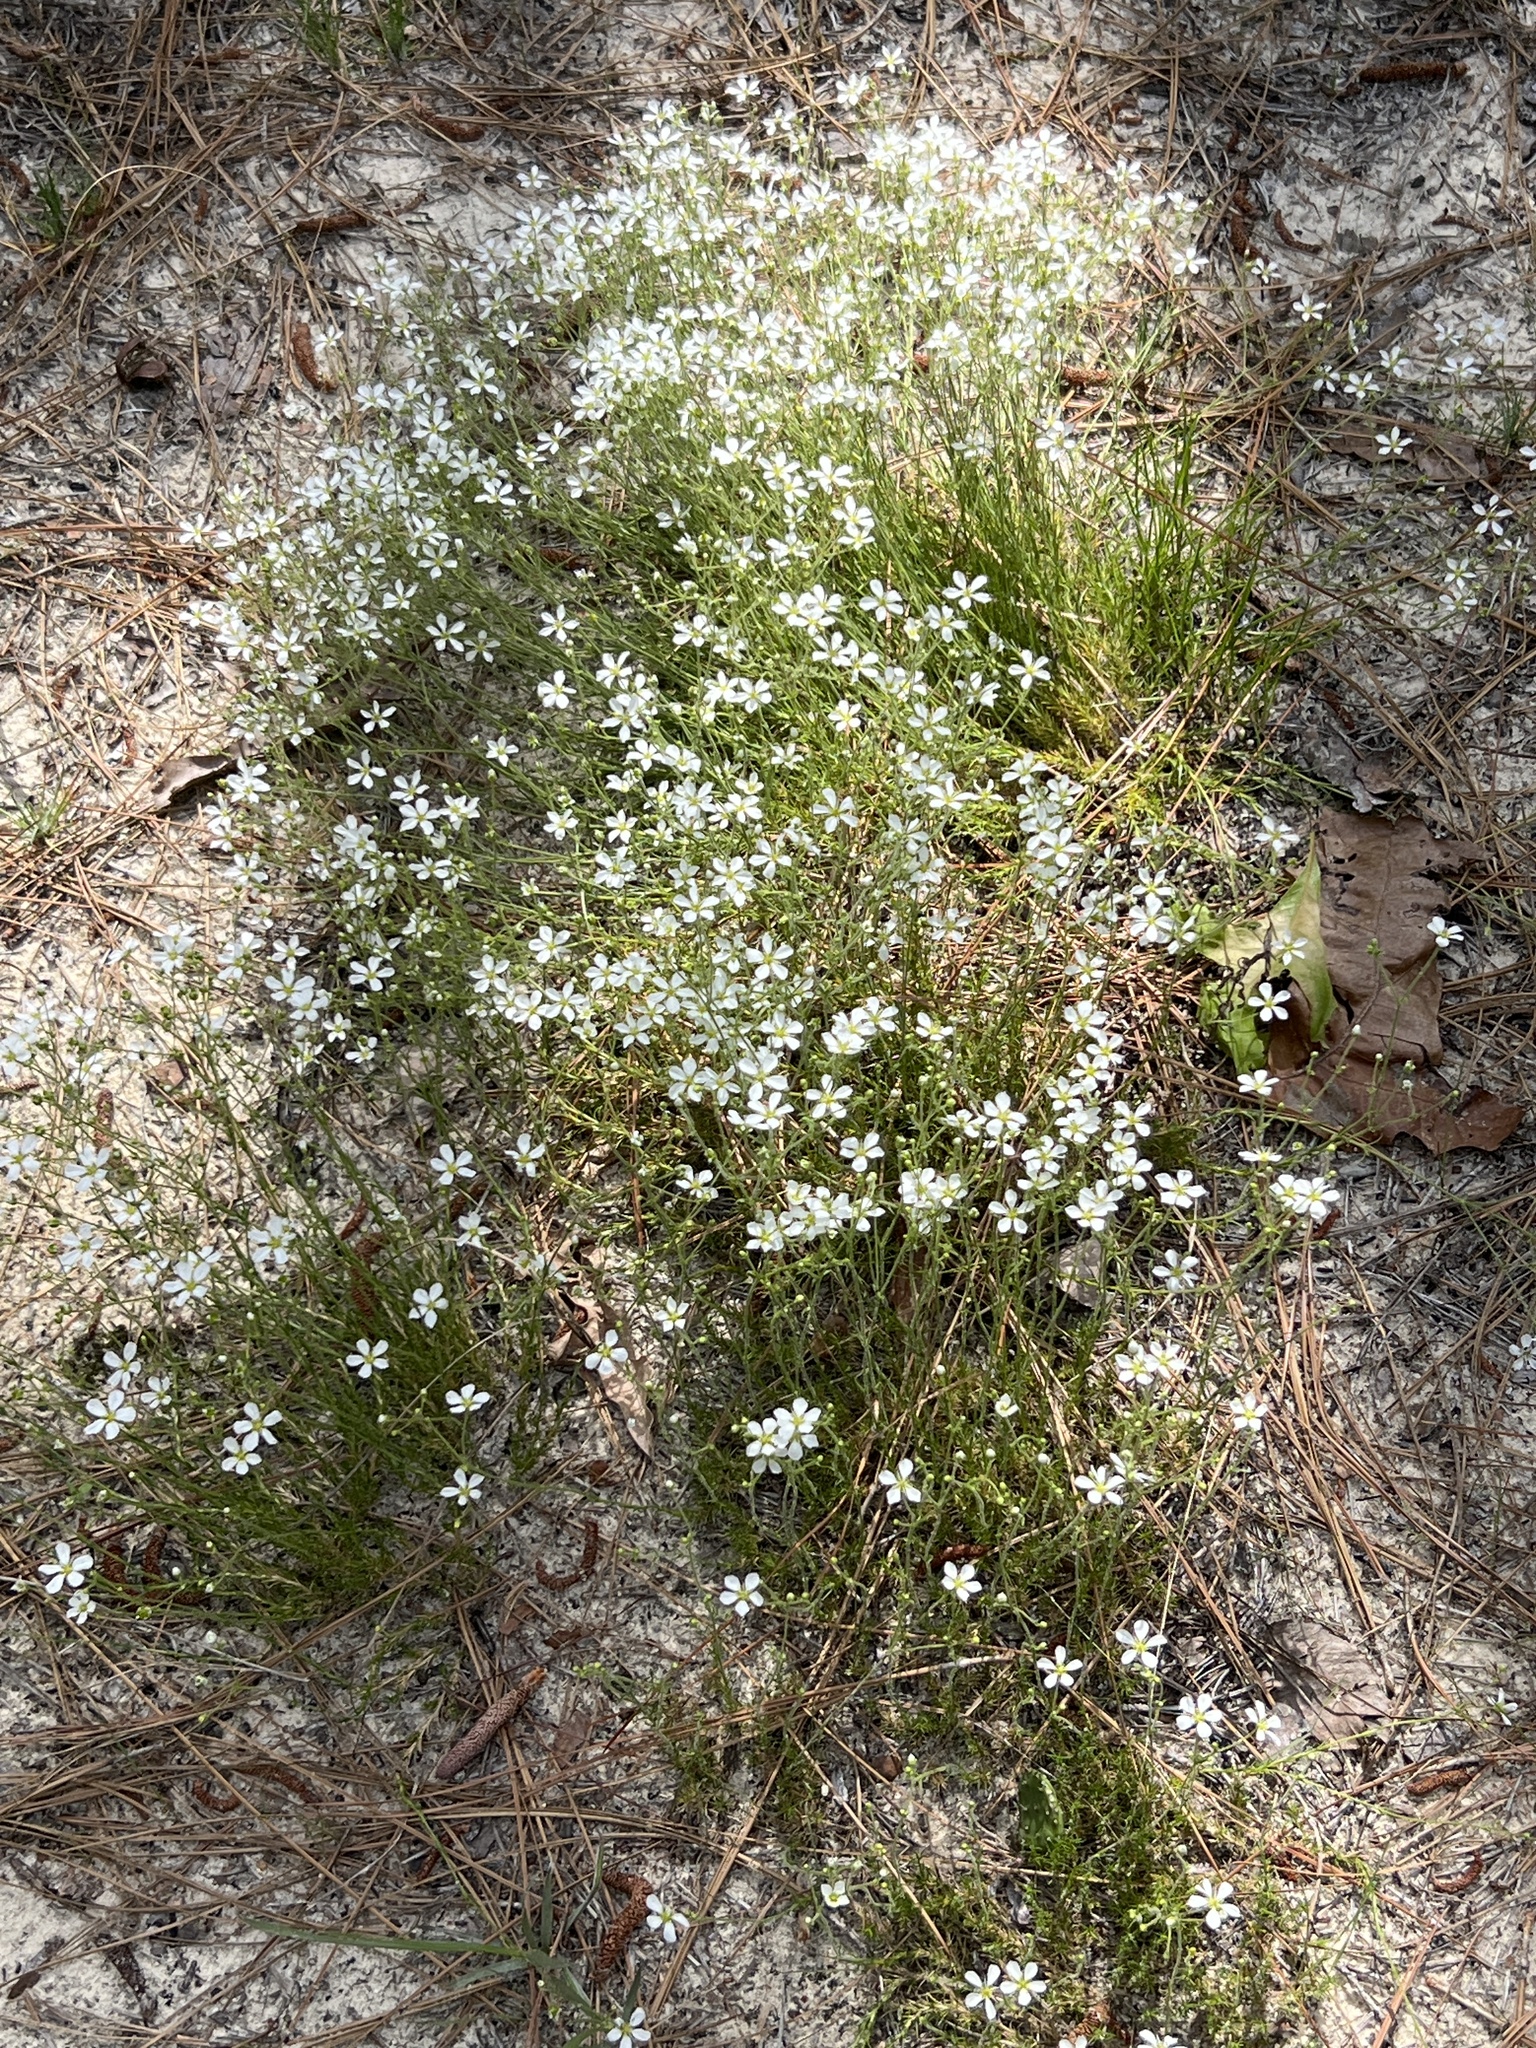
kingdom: Plantae
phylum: Tracheophyta
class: Magnoliopsida
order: Caryophyllales
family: Caryophyllaceae
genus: Geocarpon
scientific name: Geocarpon carolinianum
